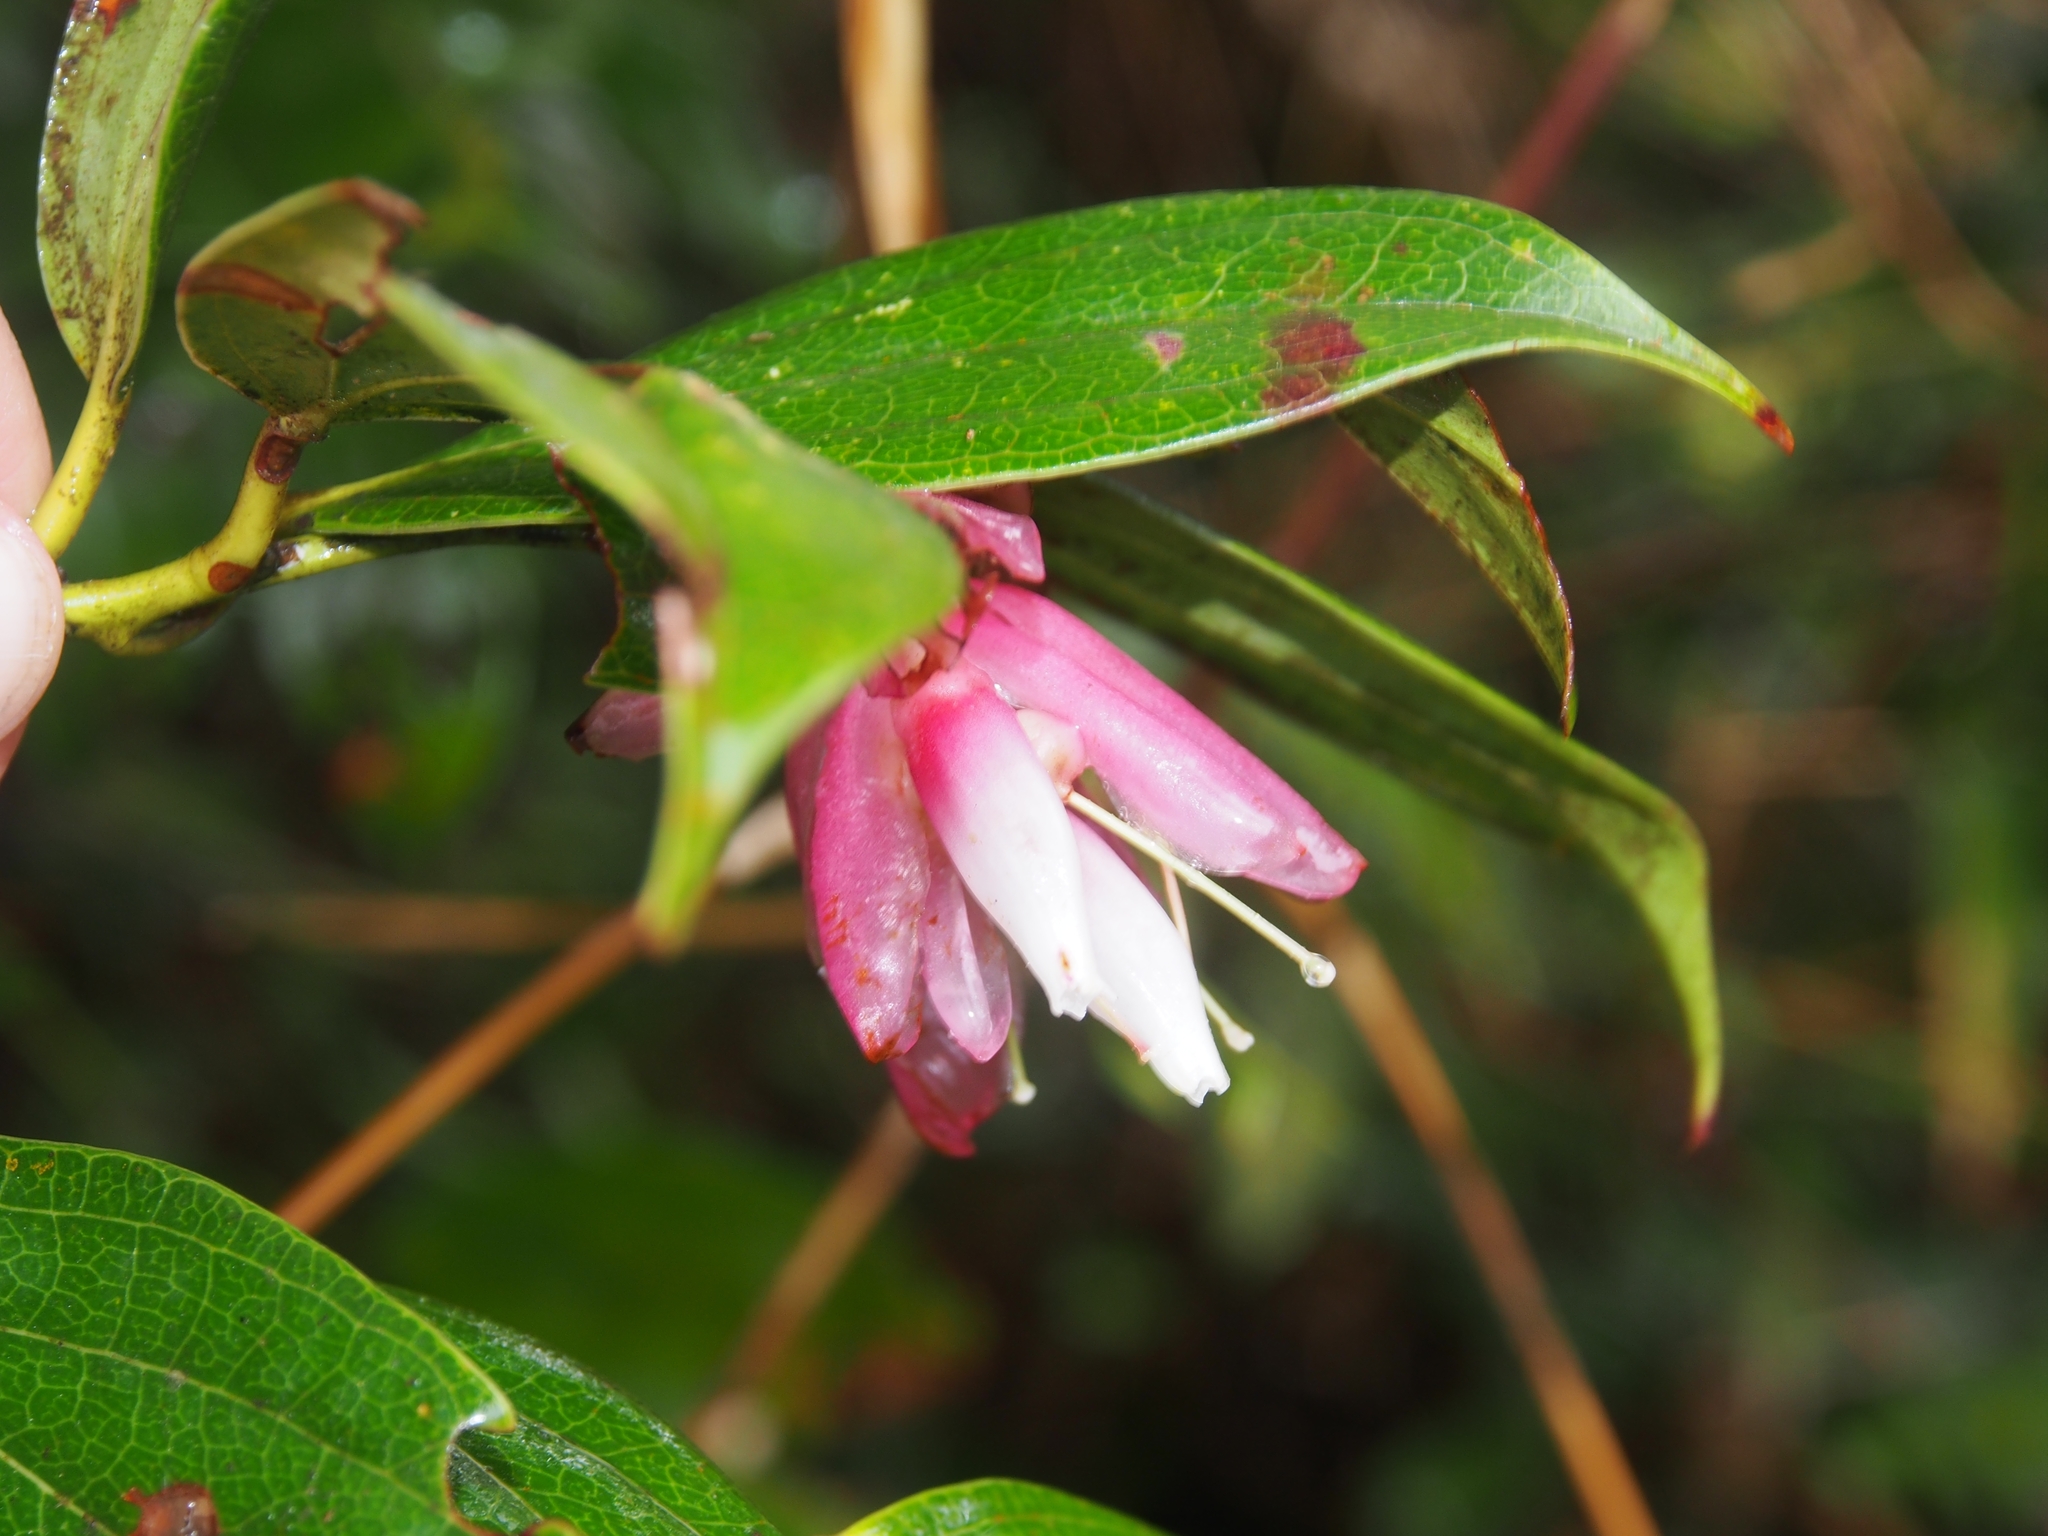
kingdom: Plantae
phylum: Tracheophyta
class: Magnoliopsida
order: Ericales
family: Ericaceae
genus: Cavendishia
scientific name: Cavendishia bracteata
